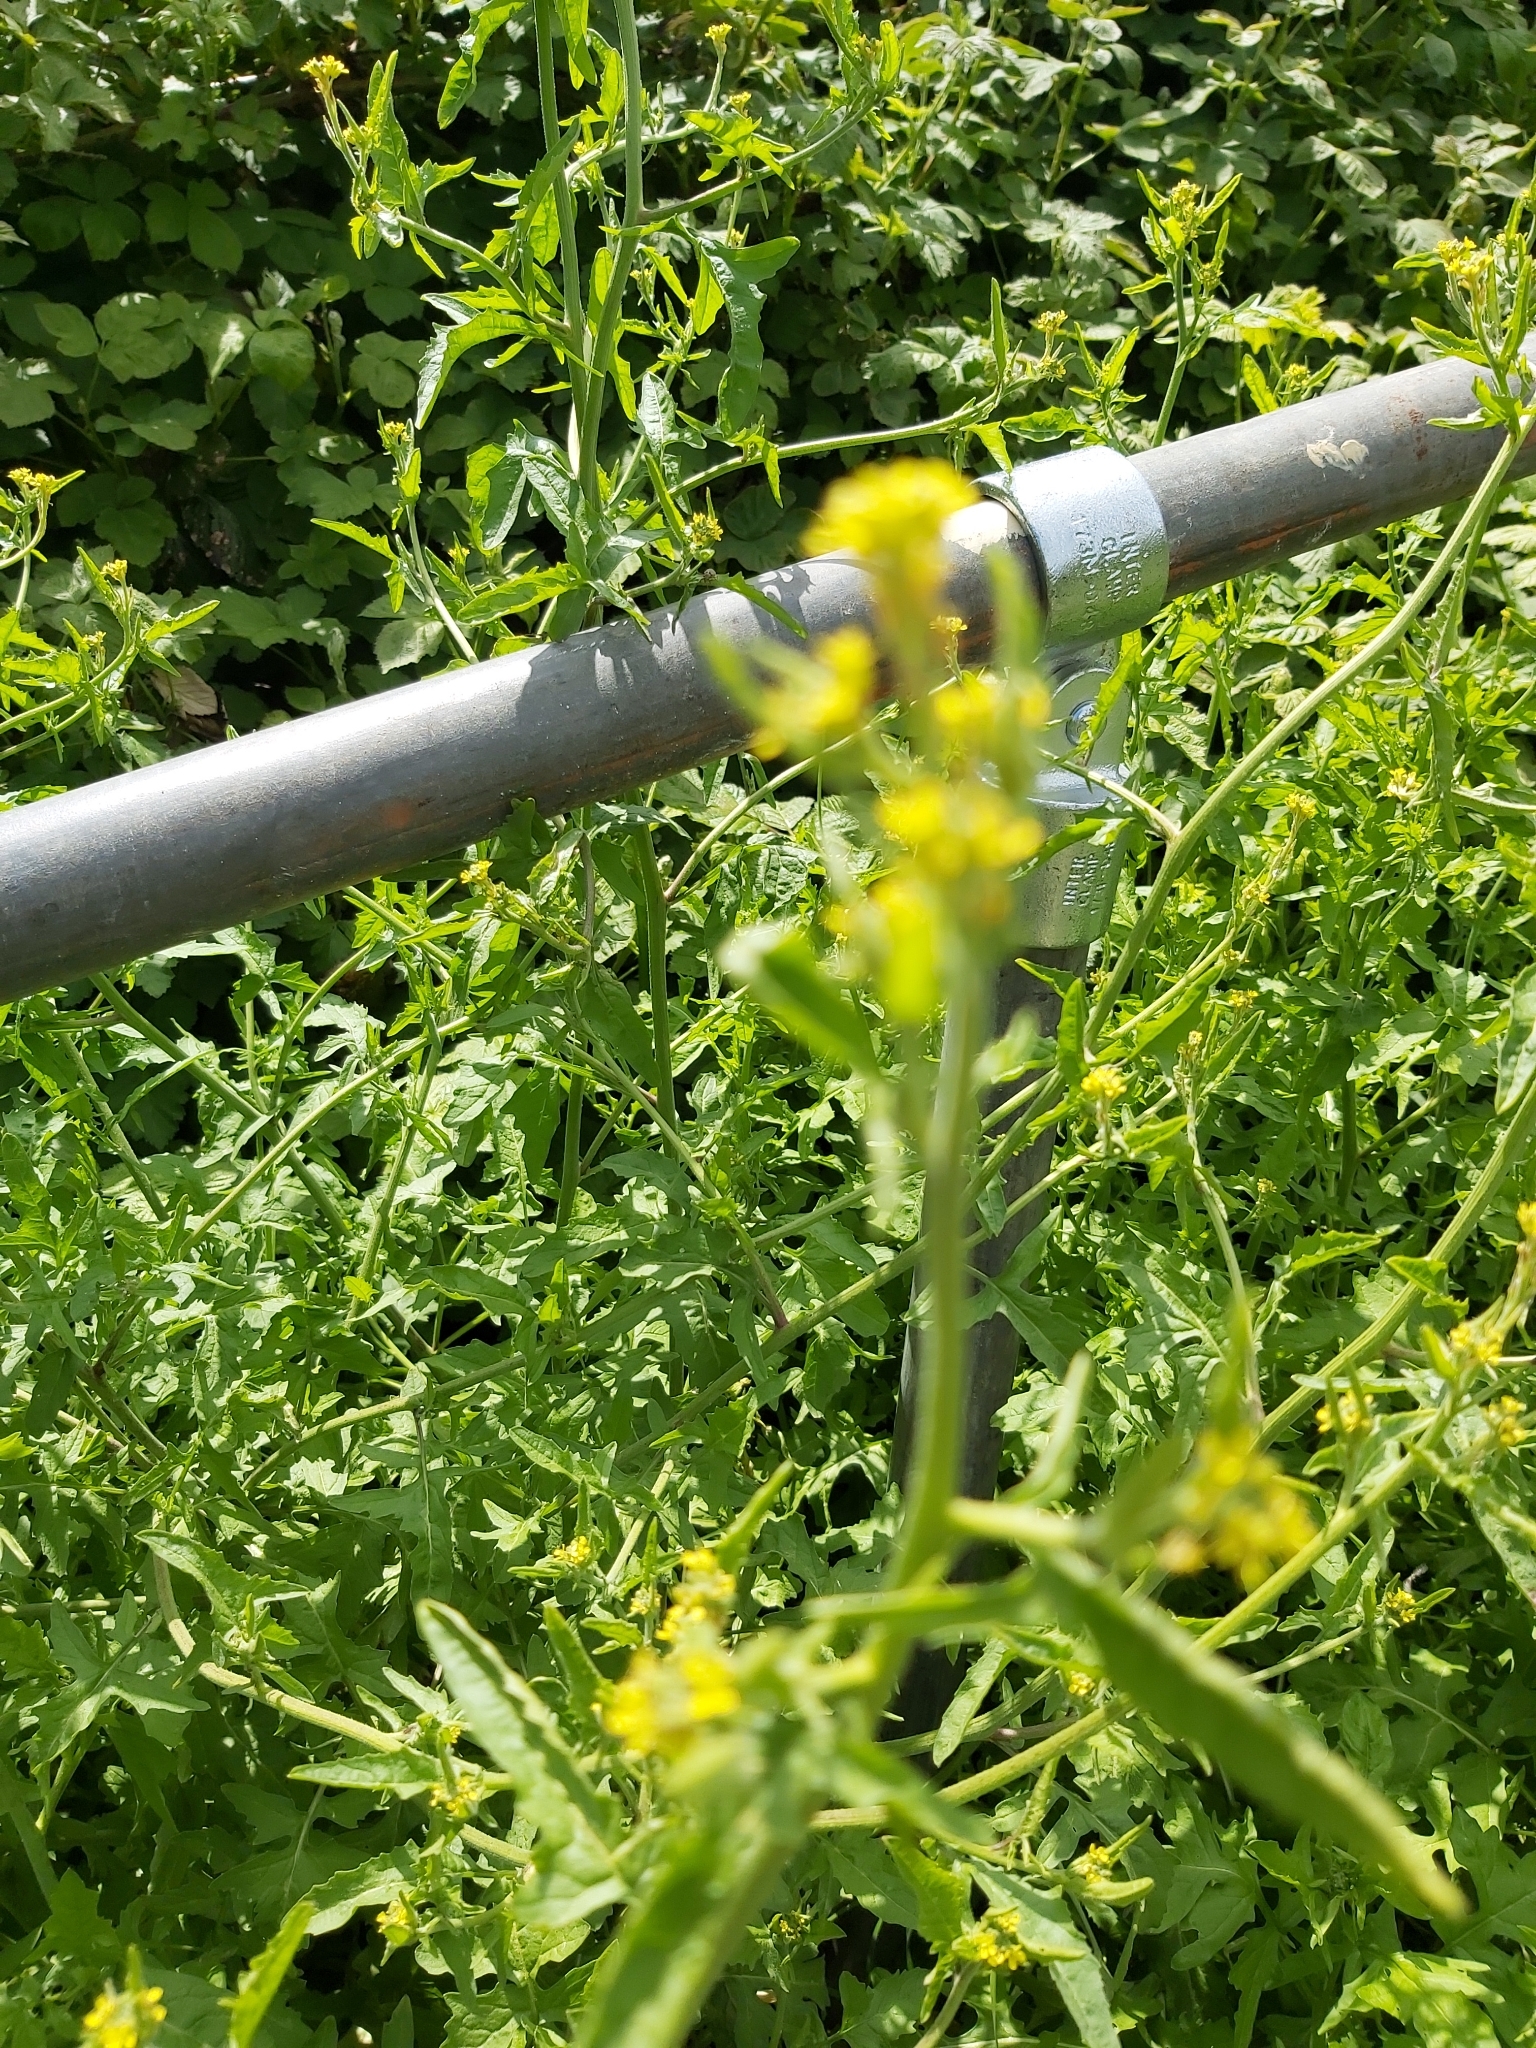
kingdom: Plantae
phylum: Tracheophyta
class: Magnoliopsida
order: Brassicales
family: Brassicaceae
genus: Sisymbrium
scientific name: Sisymbrium officinale
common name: Hedge mustard
